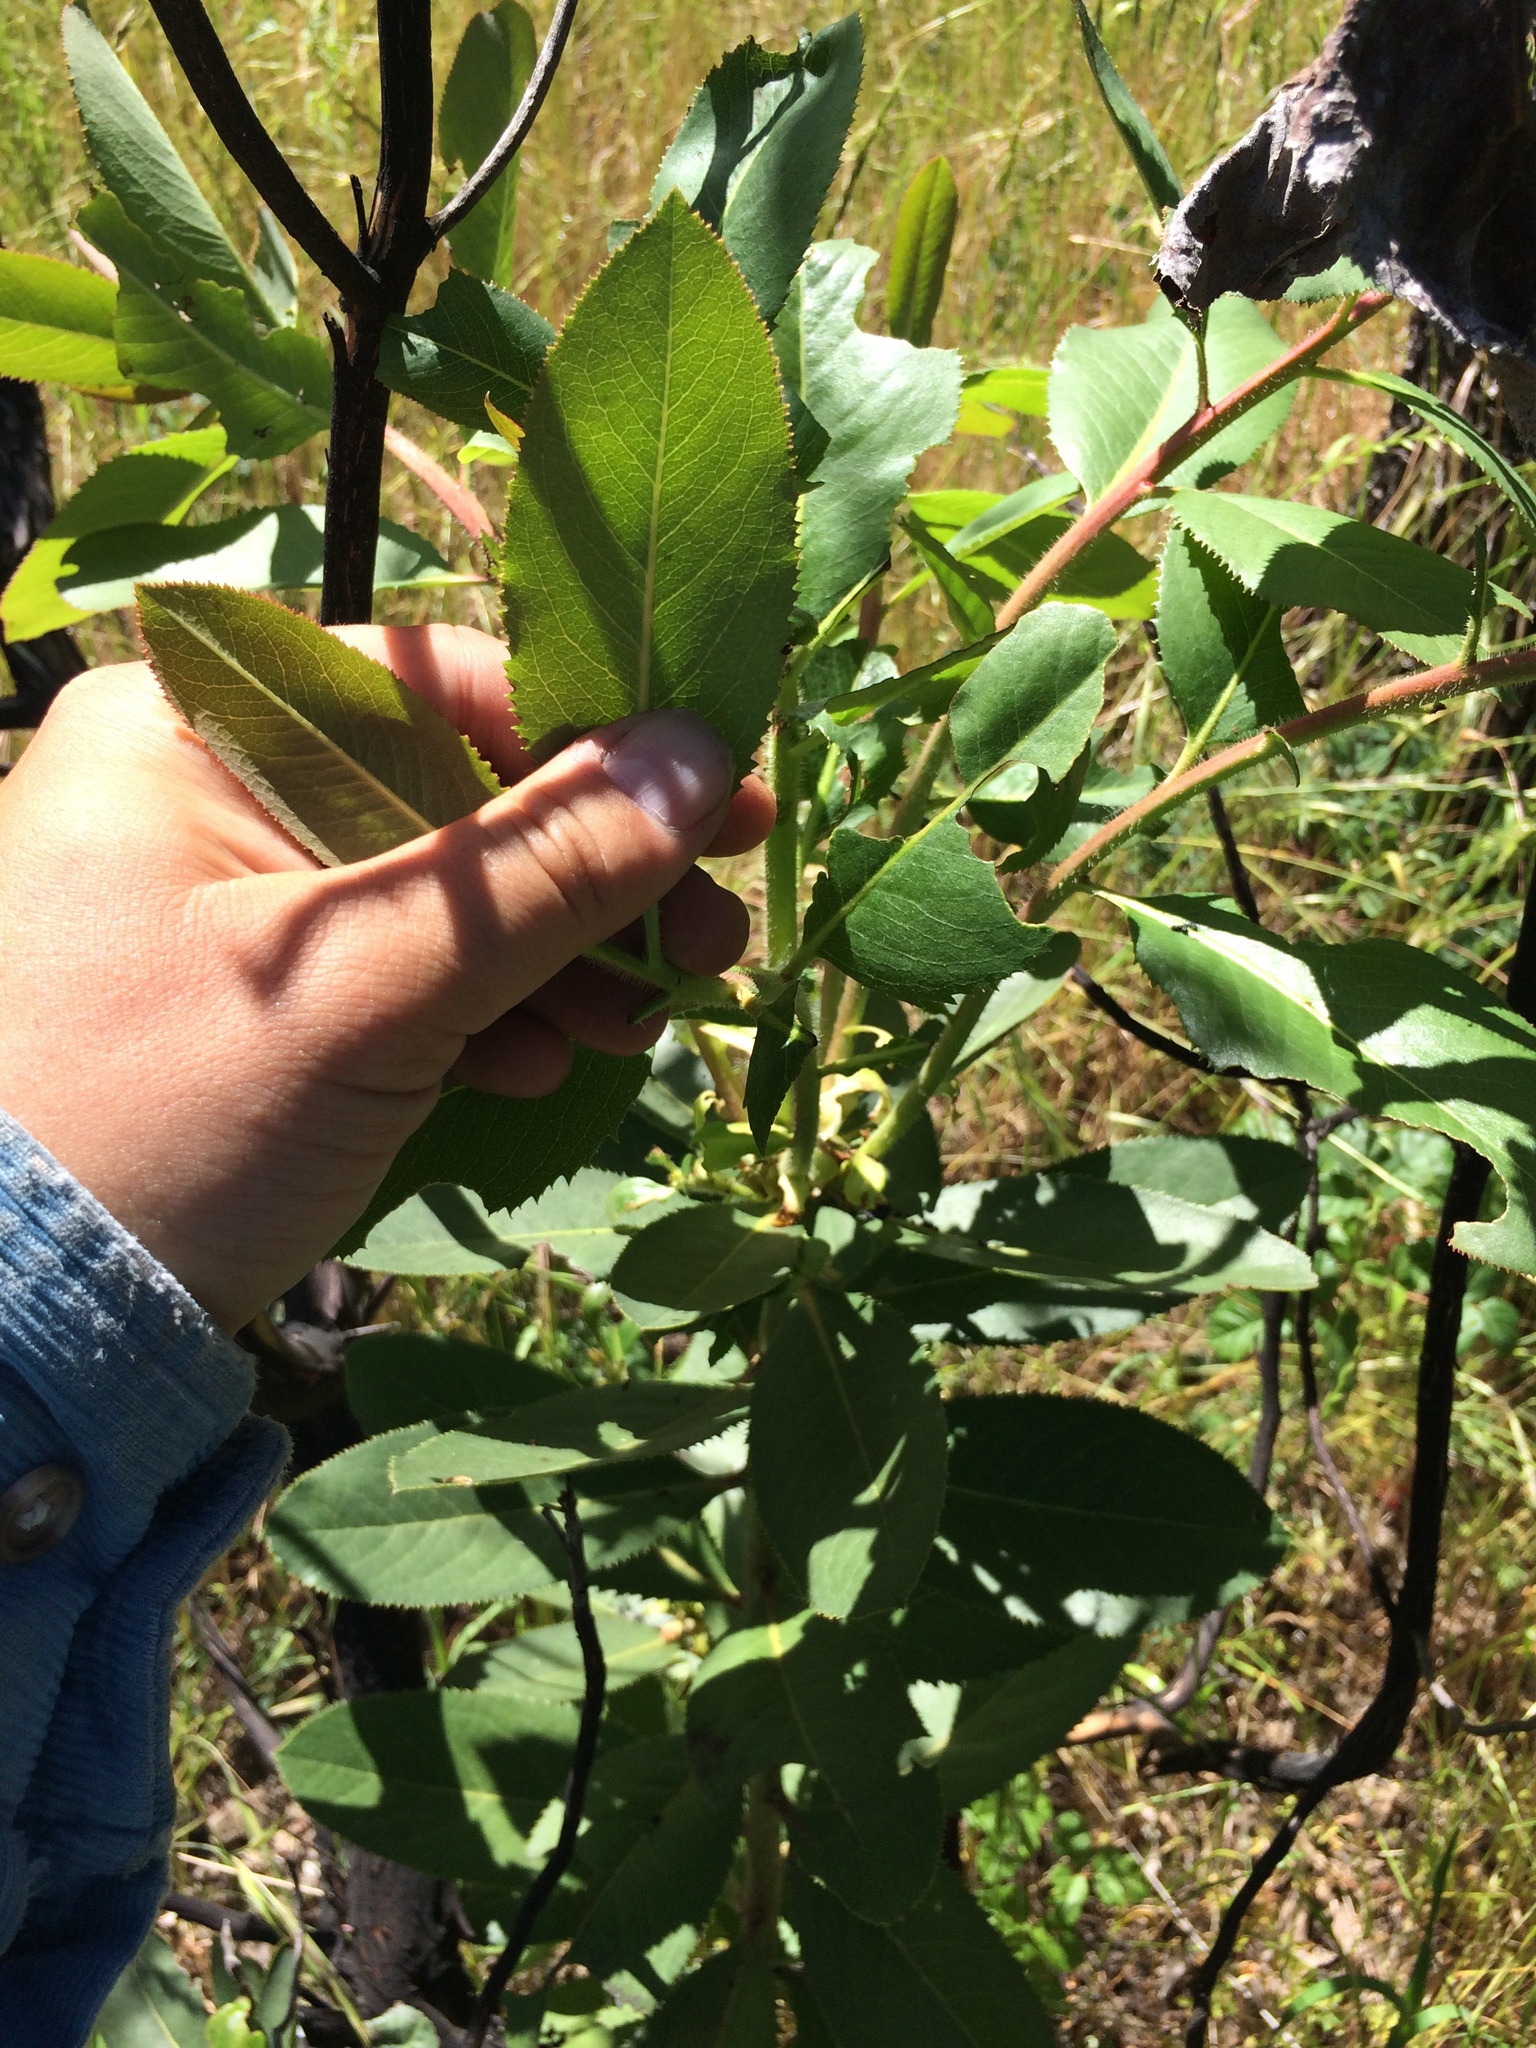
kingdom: Plantae
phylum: Tracheophyta
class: Magnoliopsida
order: Ericales
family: Ericaceae
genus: Arbutus
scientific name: Arbutus menziesii
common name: Pacific madrone
